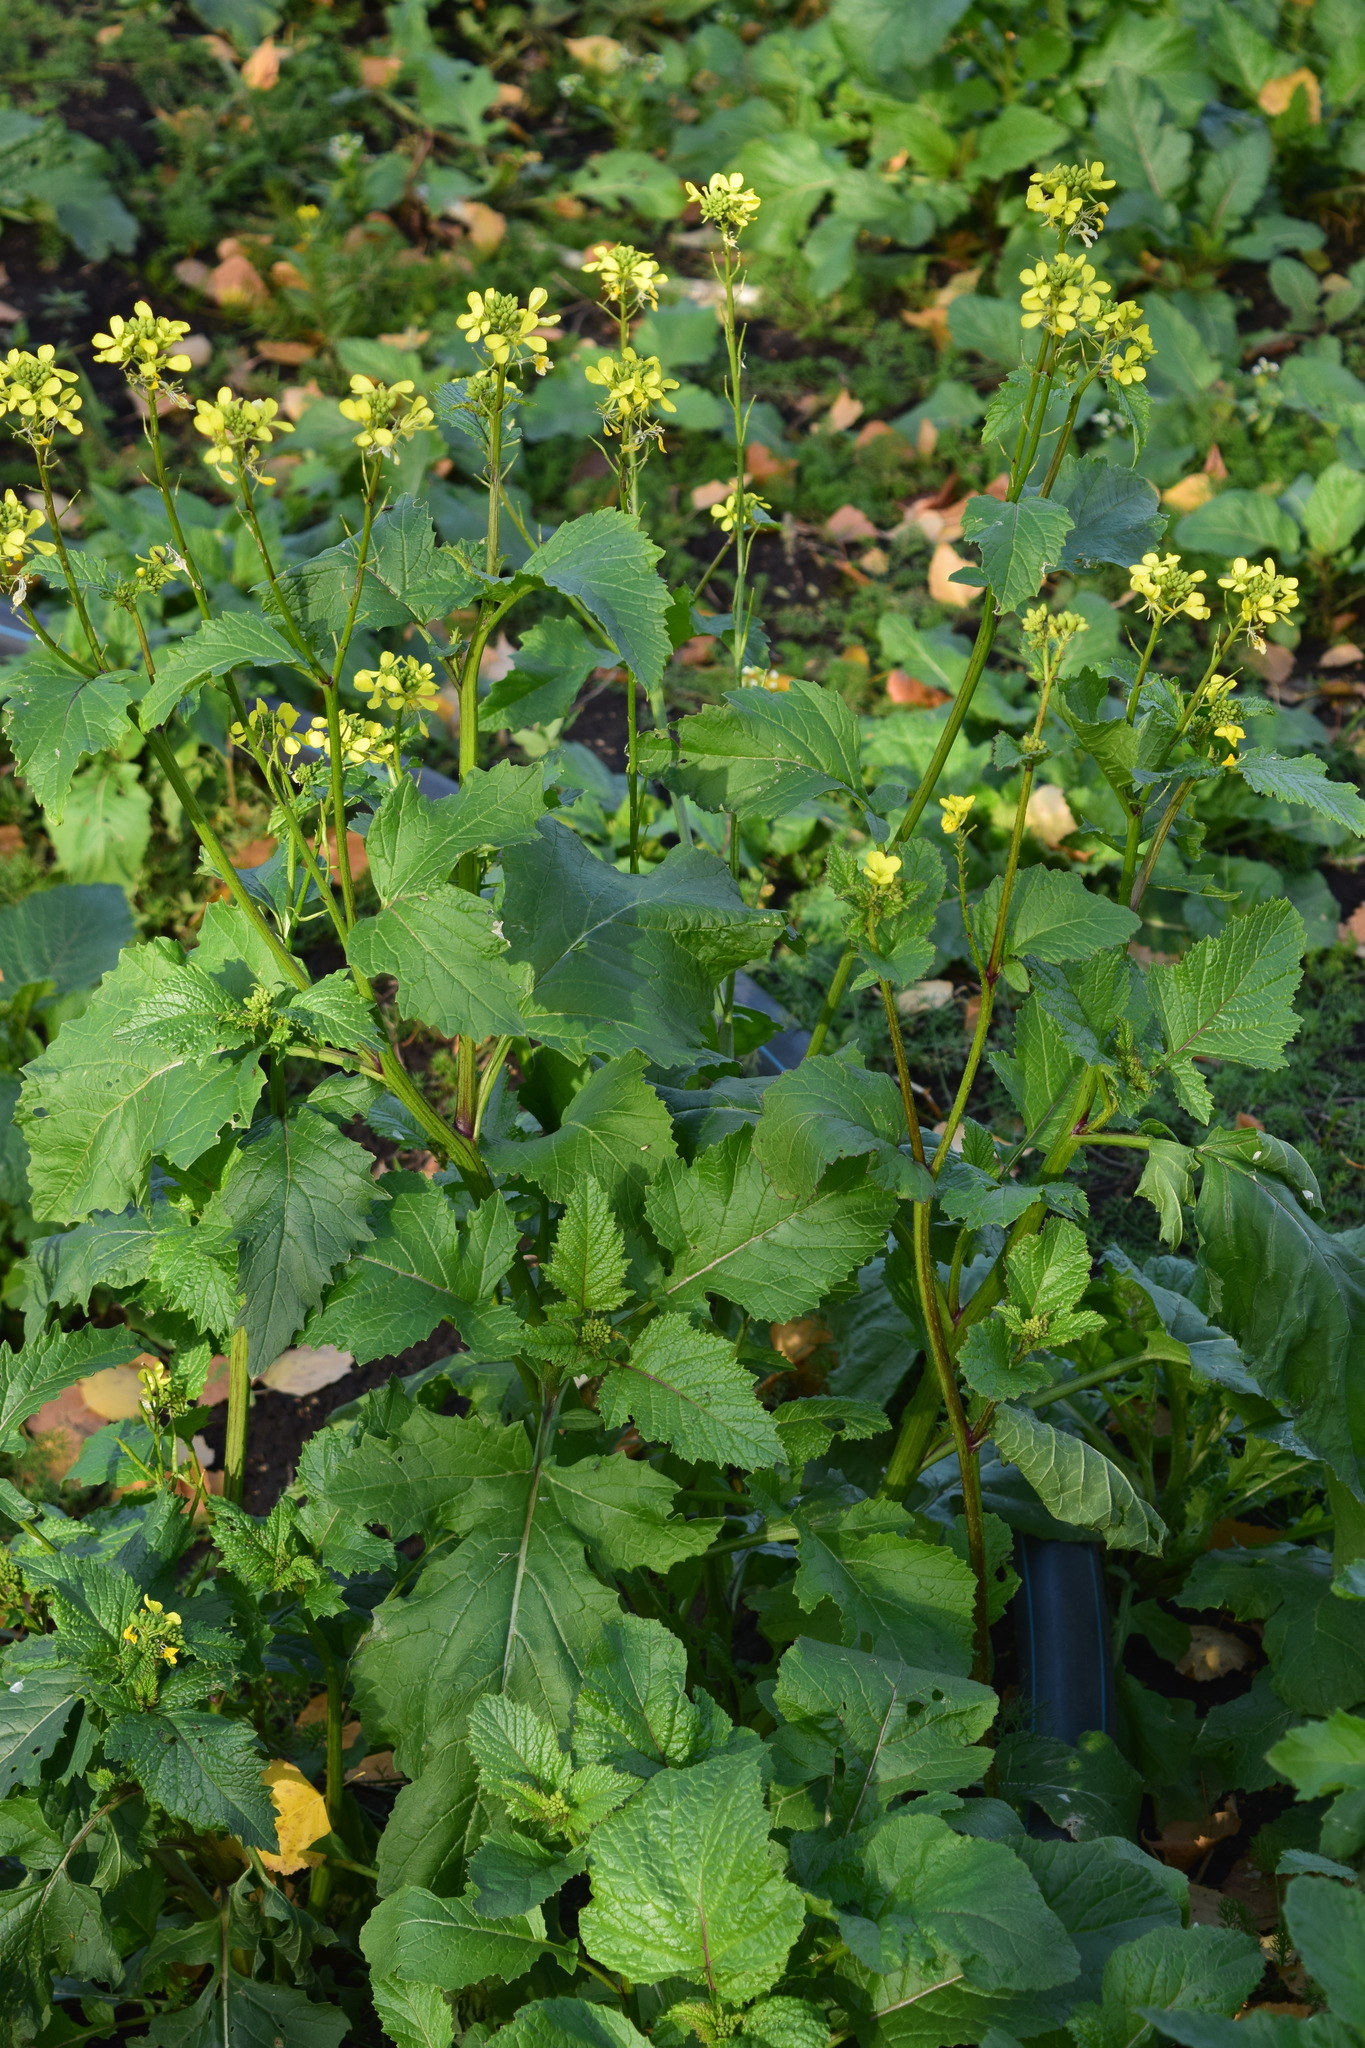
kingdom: Plantae
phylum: Tracheophyta
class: Magnoliopsida
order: Brassicales
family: Brassicaceae
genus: Sinapis
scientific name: Sinapis arvensis
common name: Charlock
